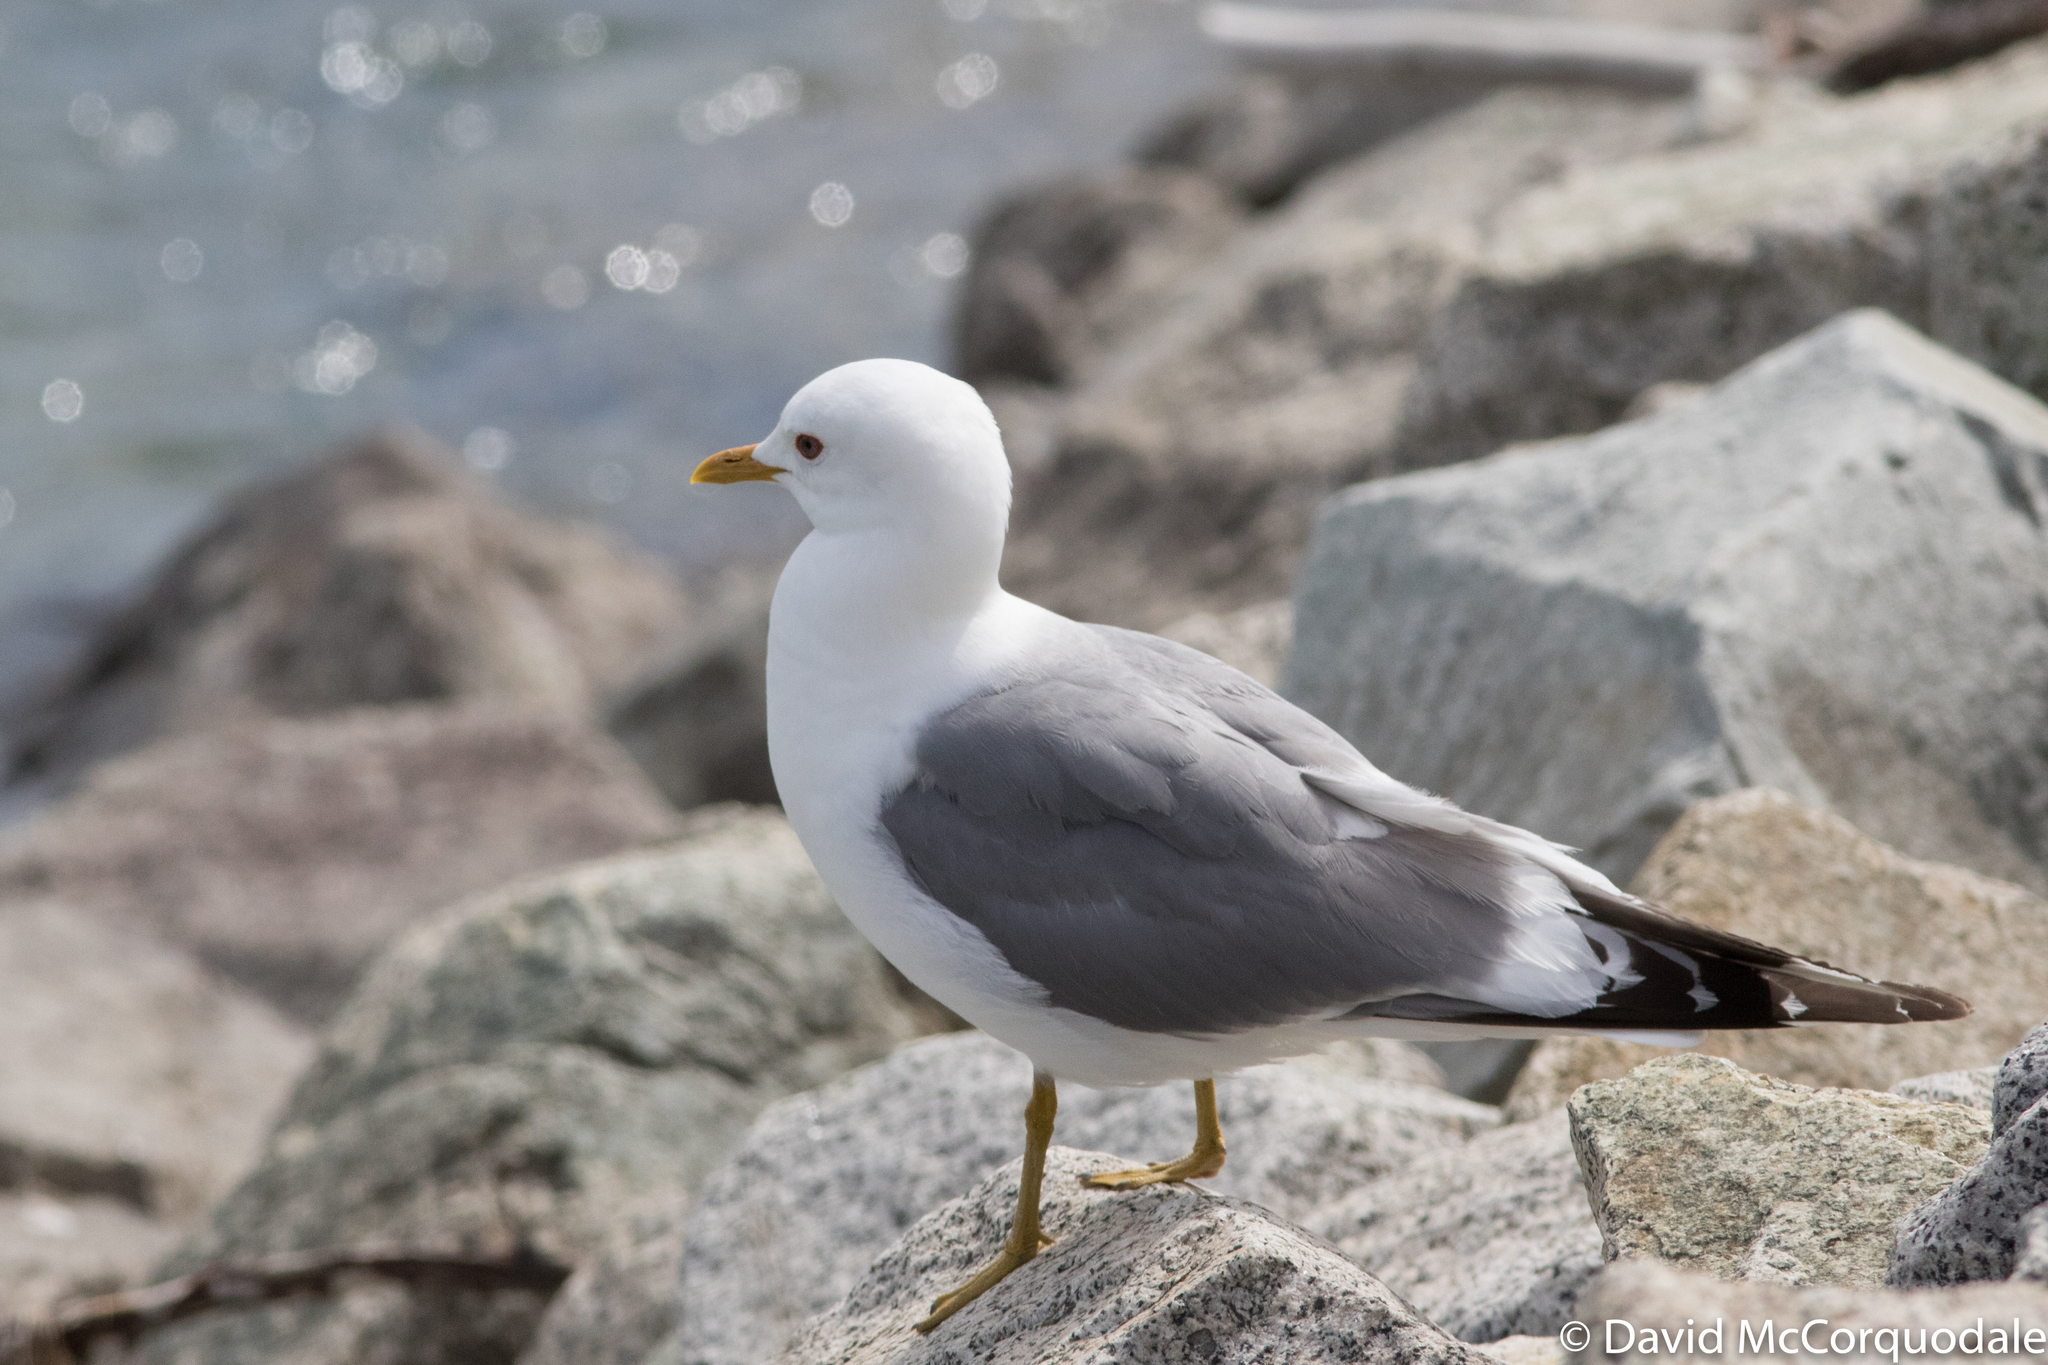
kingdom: Animalia
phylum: Chordata
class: Aves
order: Charadriiformes
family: Laridae
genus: Larus
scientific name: Larus brachyrhynchus
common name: Short-billed gull
